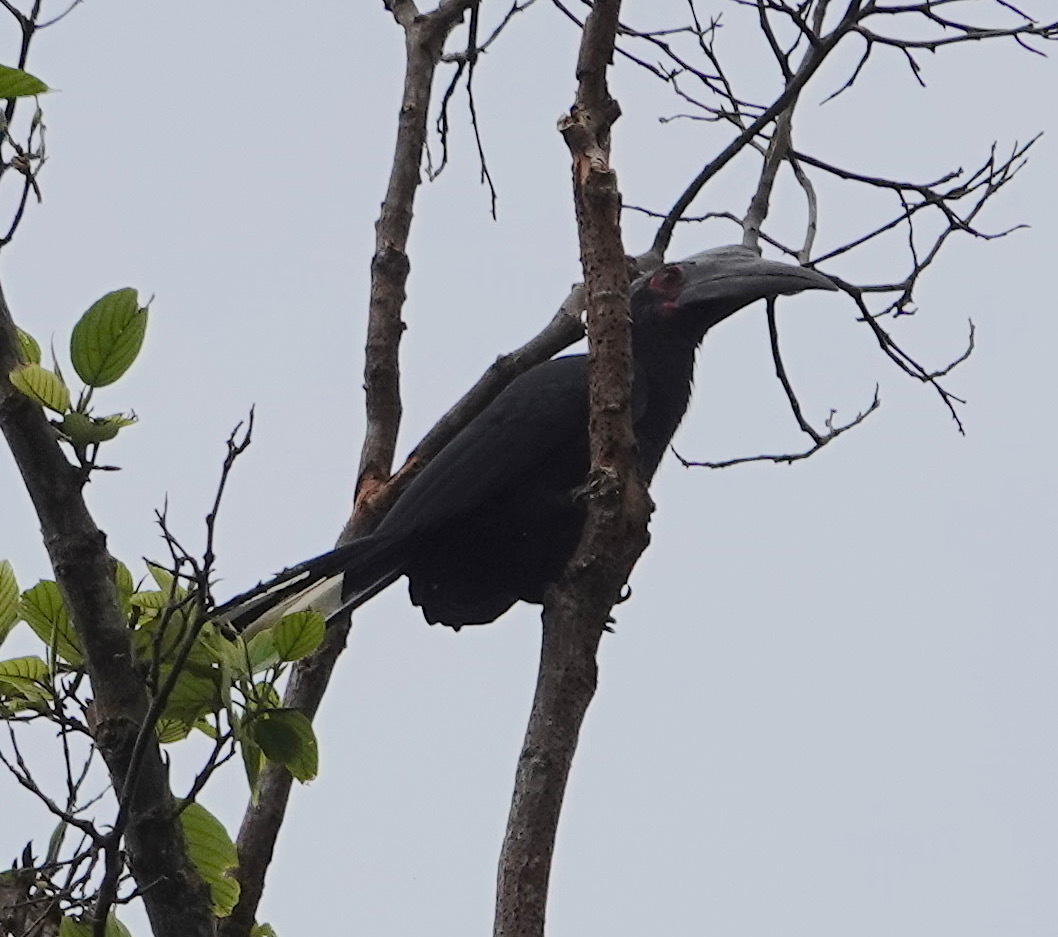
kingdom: Animalia
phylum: Chordata
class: Aves
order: Bucerotiformes
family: Bucerotidae
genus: Anthracoceros
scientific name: Anthracoceros malayanus
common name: Black hornbill
